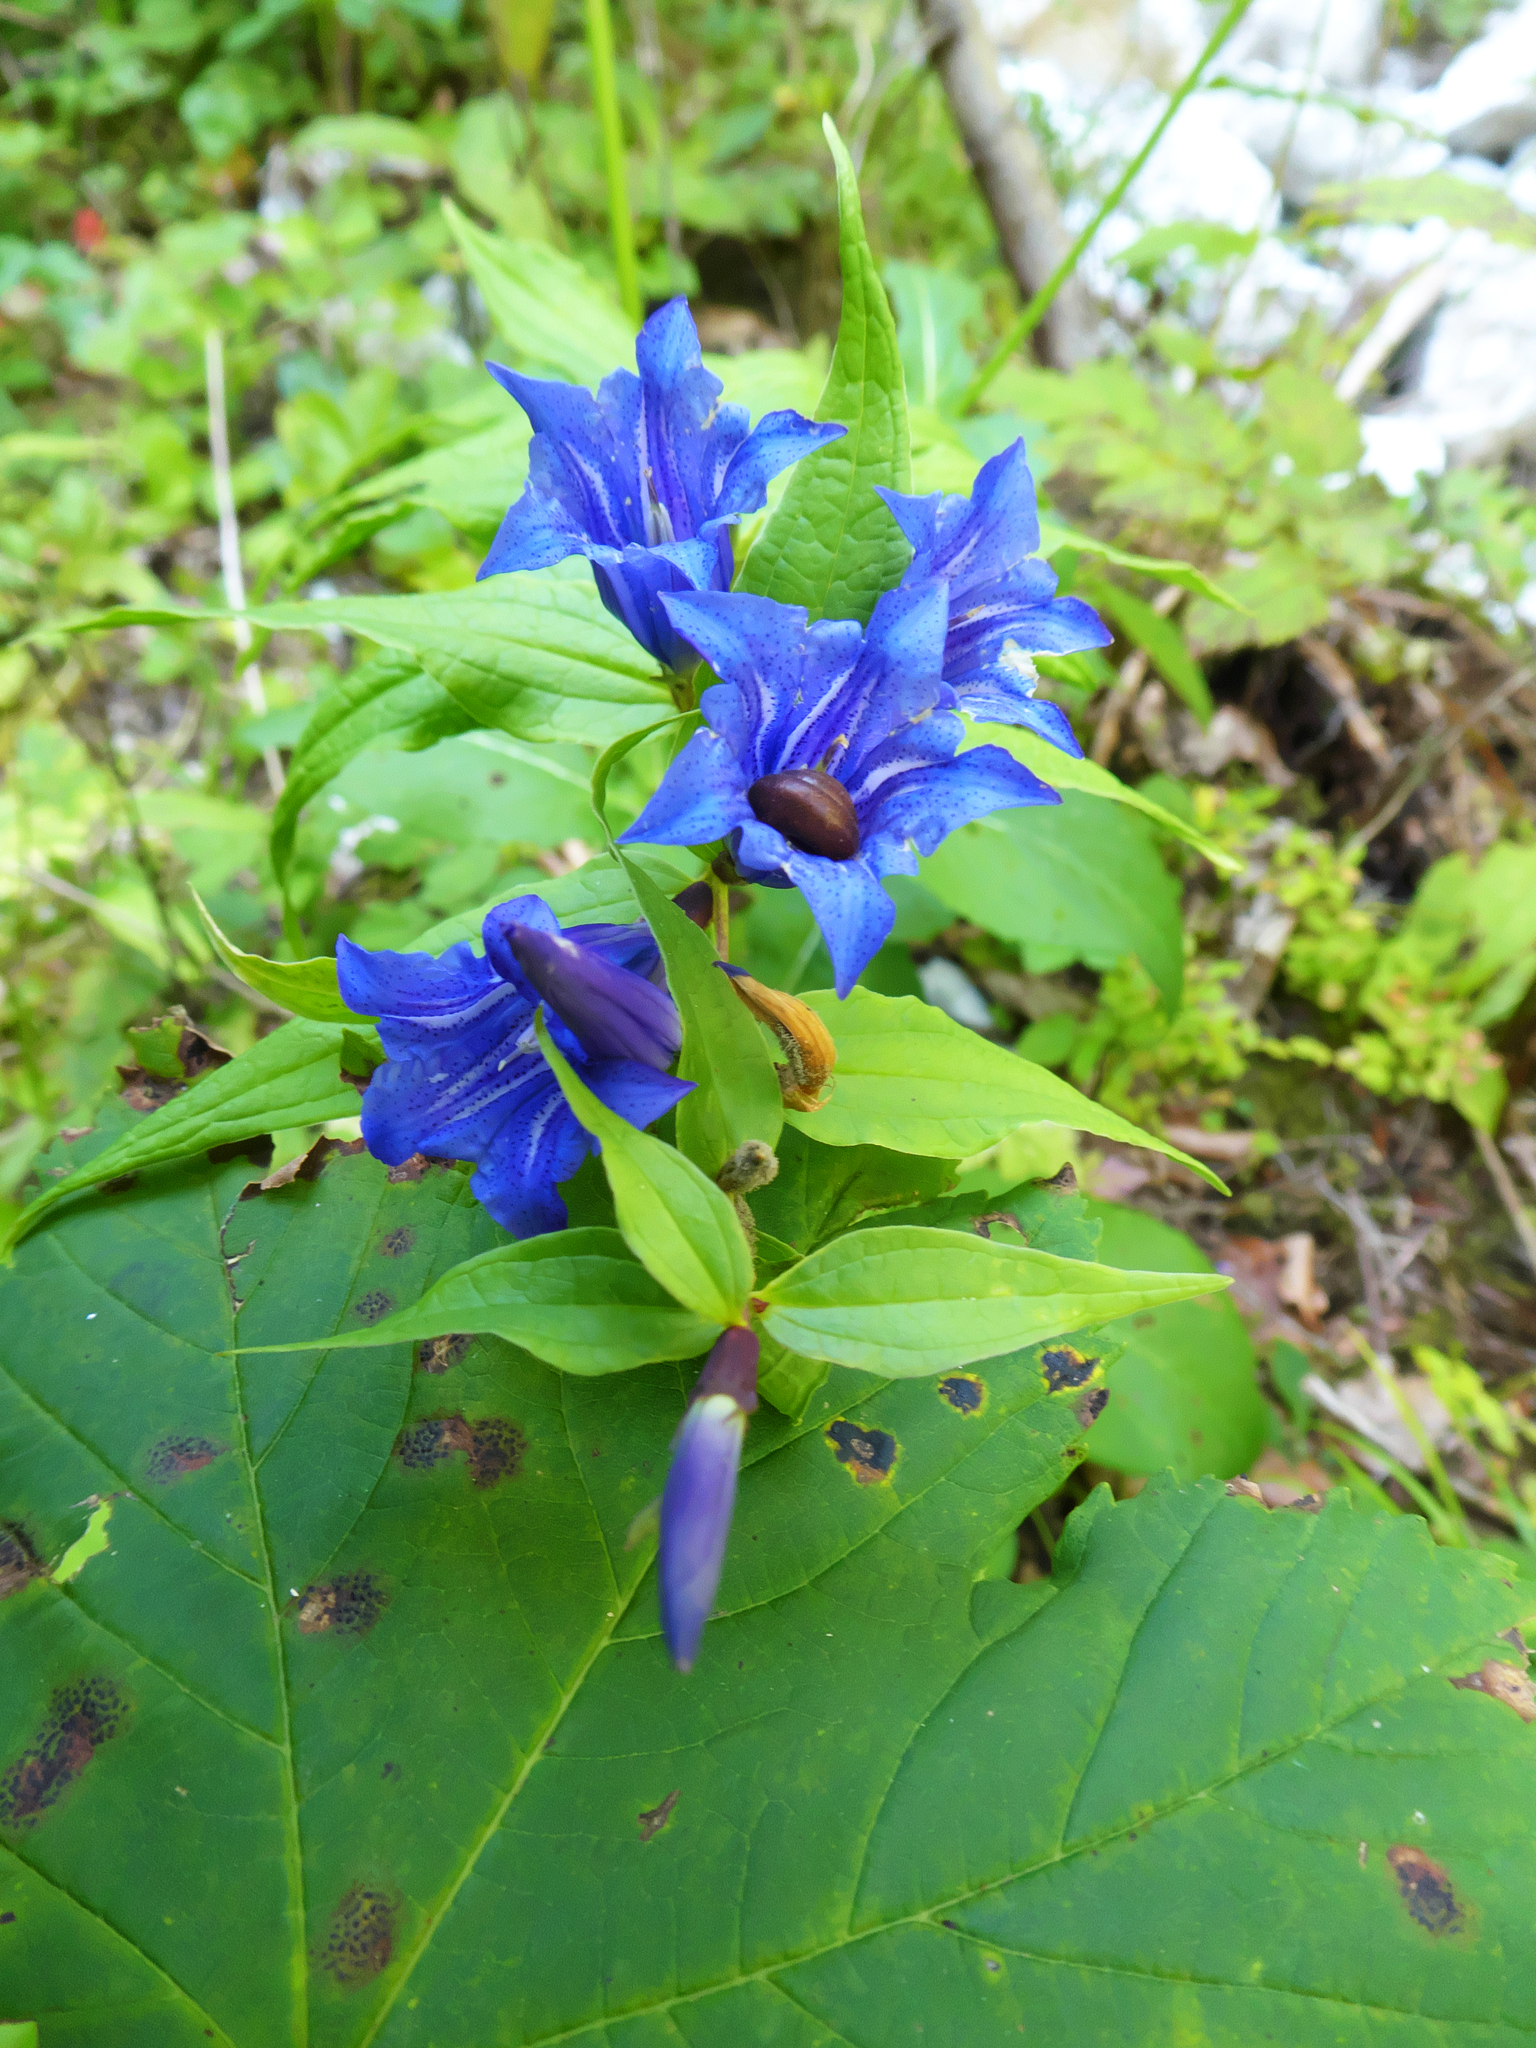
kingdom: Plantae
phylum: Tracheophyta
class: Magnoliopsida
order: Gentianales
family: Gentianaceae
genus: Gentiana
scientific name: Gentiana asclepiadea
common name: Willow gentian
